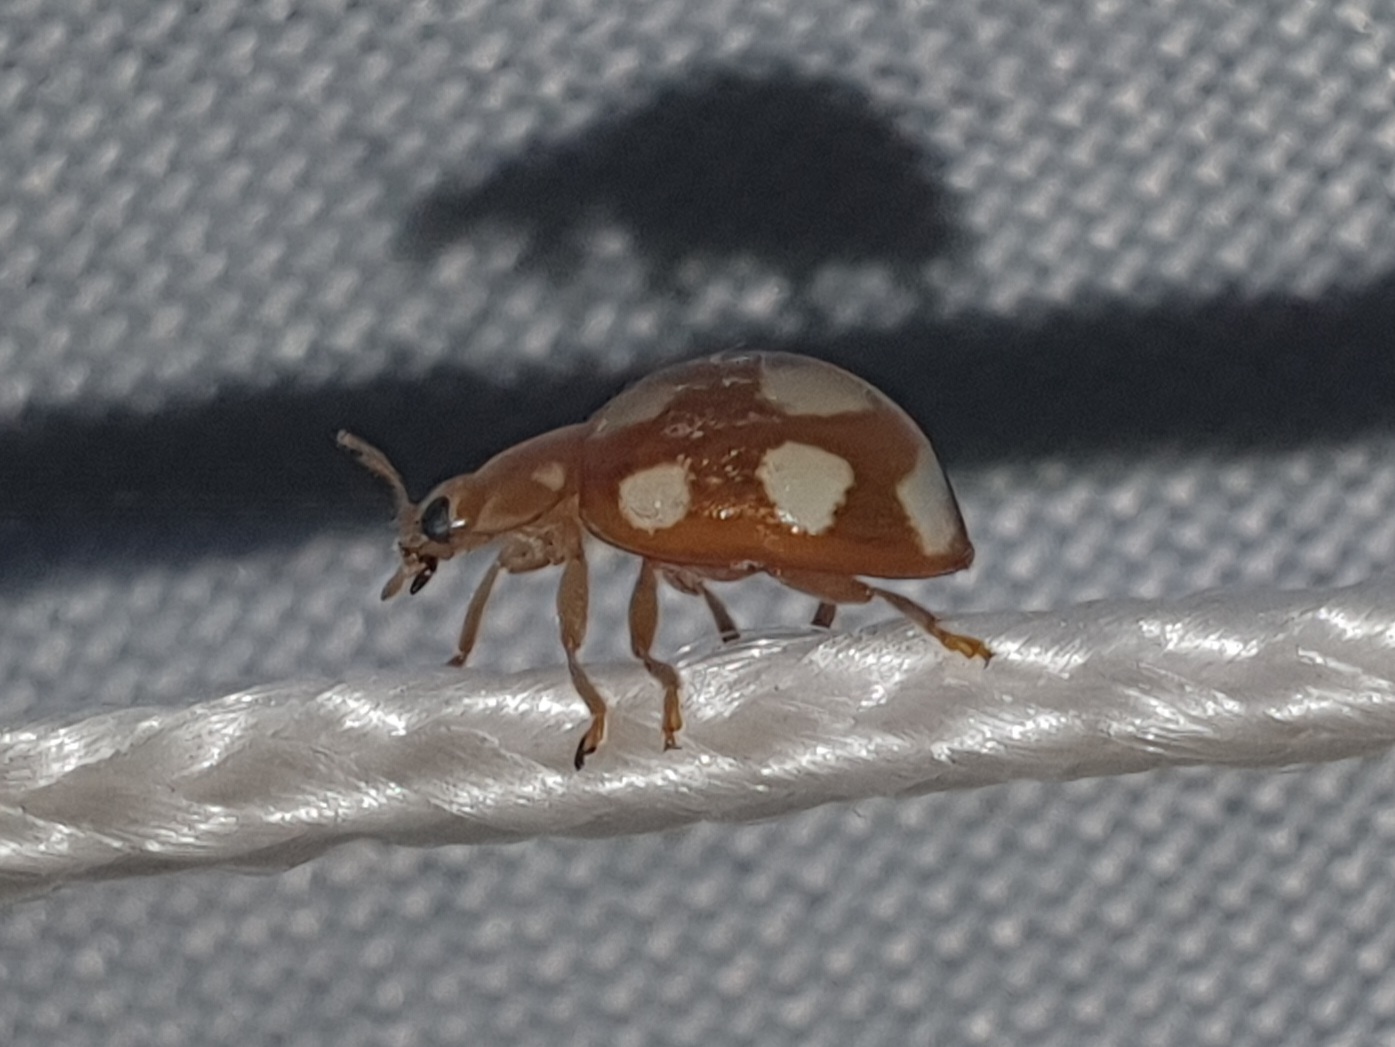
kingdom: Animalia
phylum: Arthropoda
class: Insecta
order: Coleoptera
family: Coccinellidae
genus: Calvia
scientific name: Calvia decemguttata
